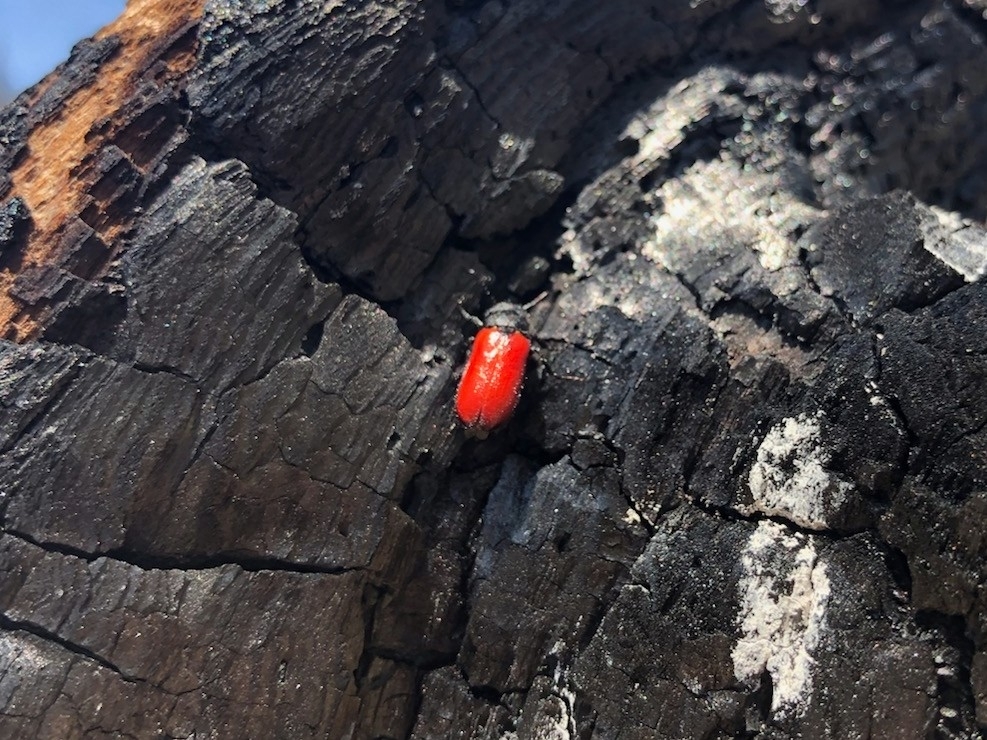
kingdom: Animalia
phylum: Arthropoda
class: Insecta
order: Coleoptera
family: Meloidae
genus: Tricrania
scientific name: Tricrania stansburii
